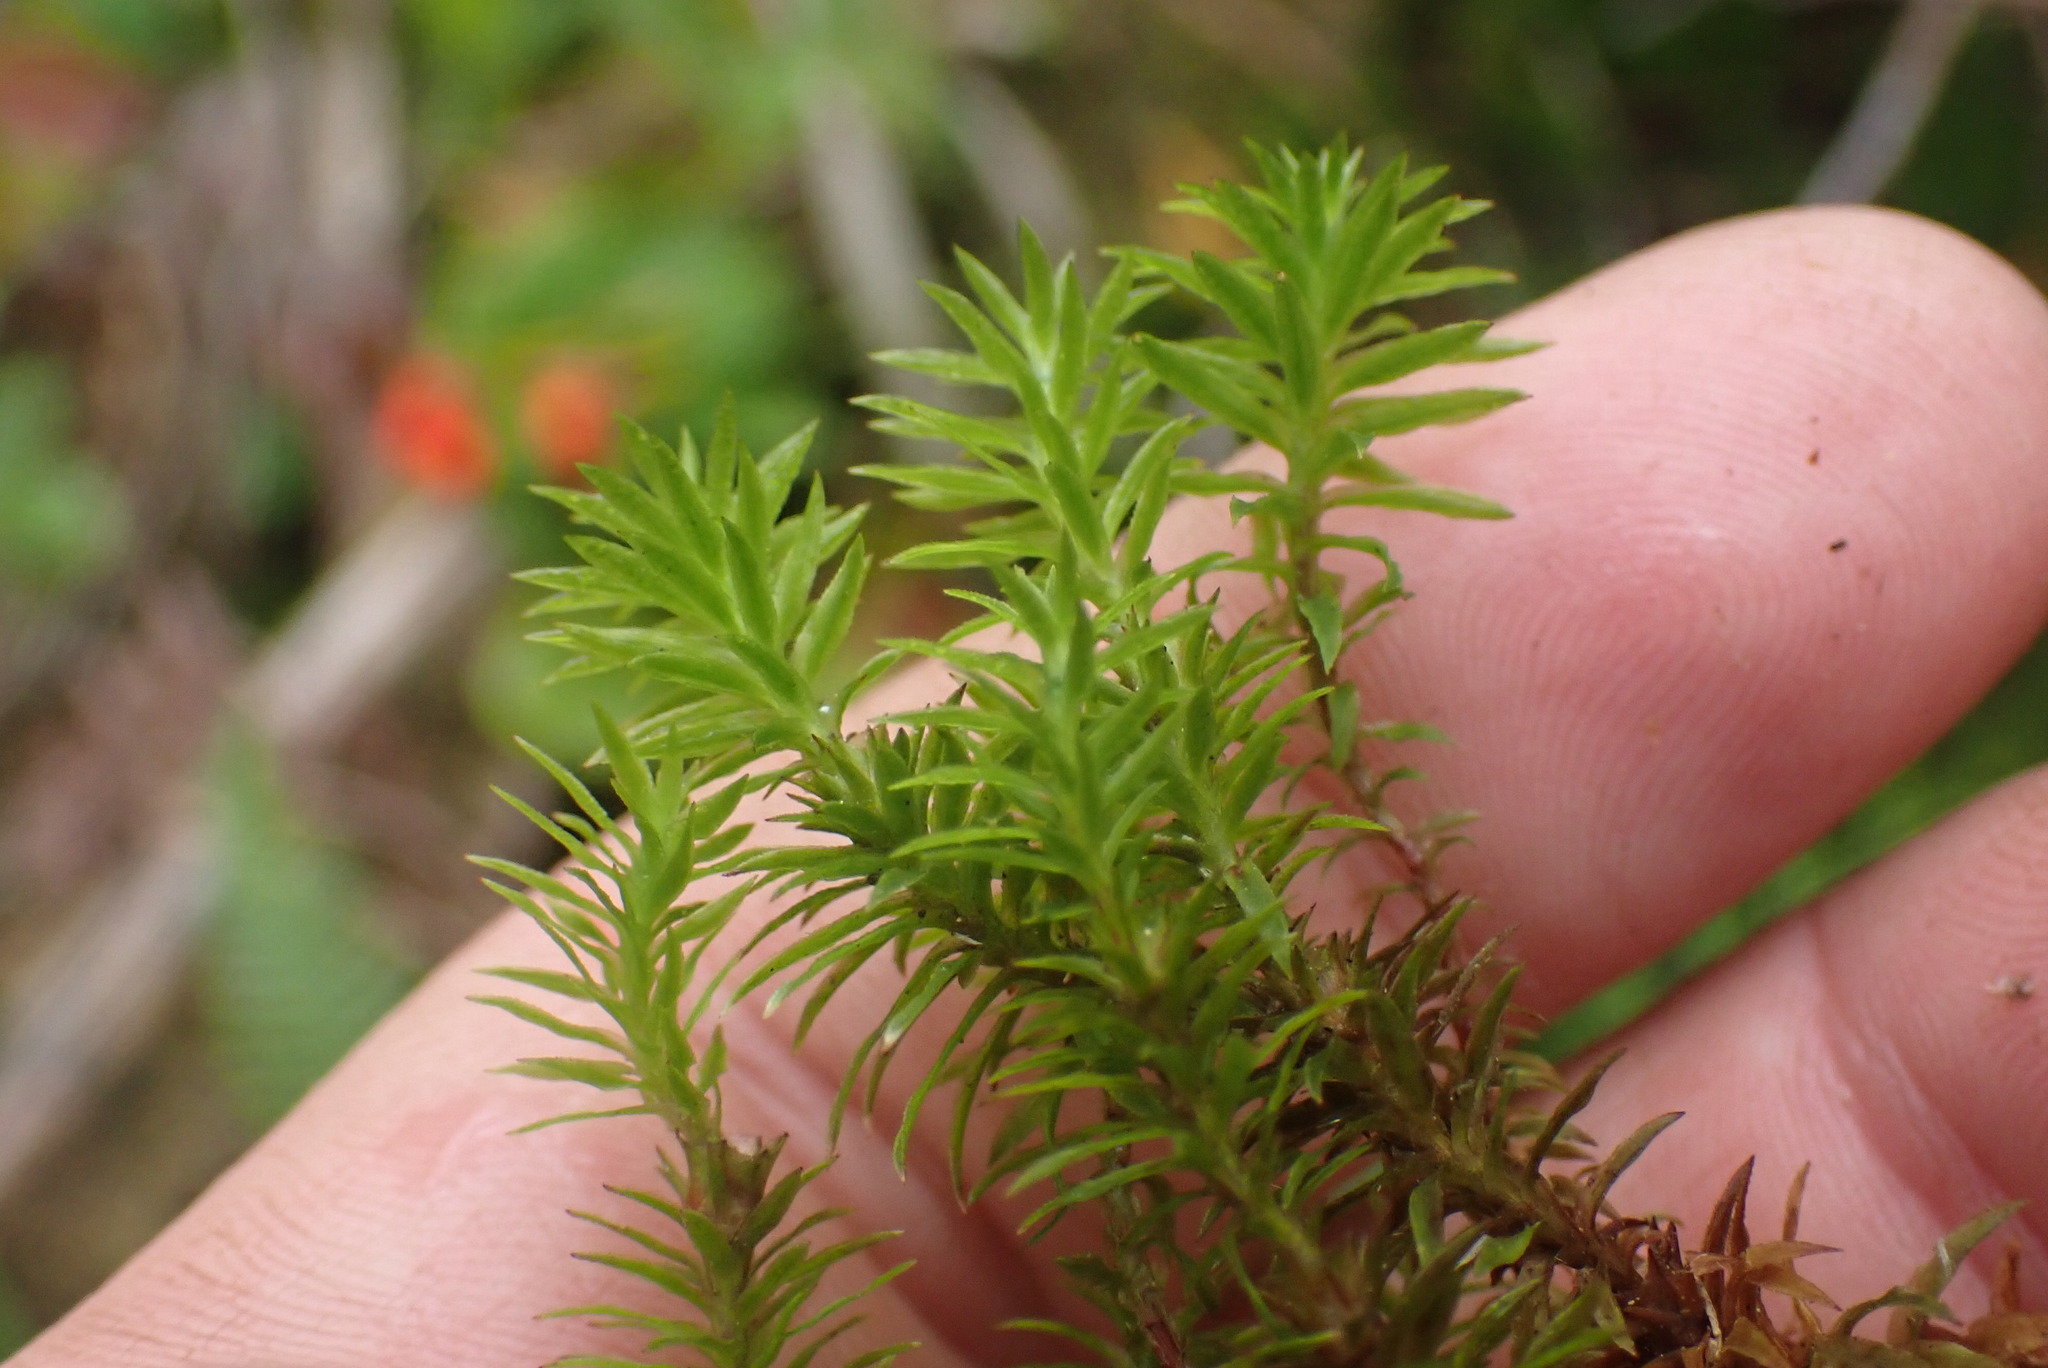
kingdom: Plantae
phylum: Bryophyta
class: Polytrichopsida
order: Polytrichales
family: Polytrichaceae
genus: Pogonatum
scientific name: Pogonatum contortum
